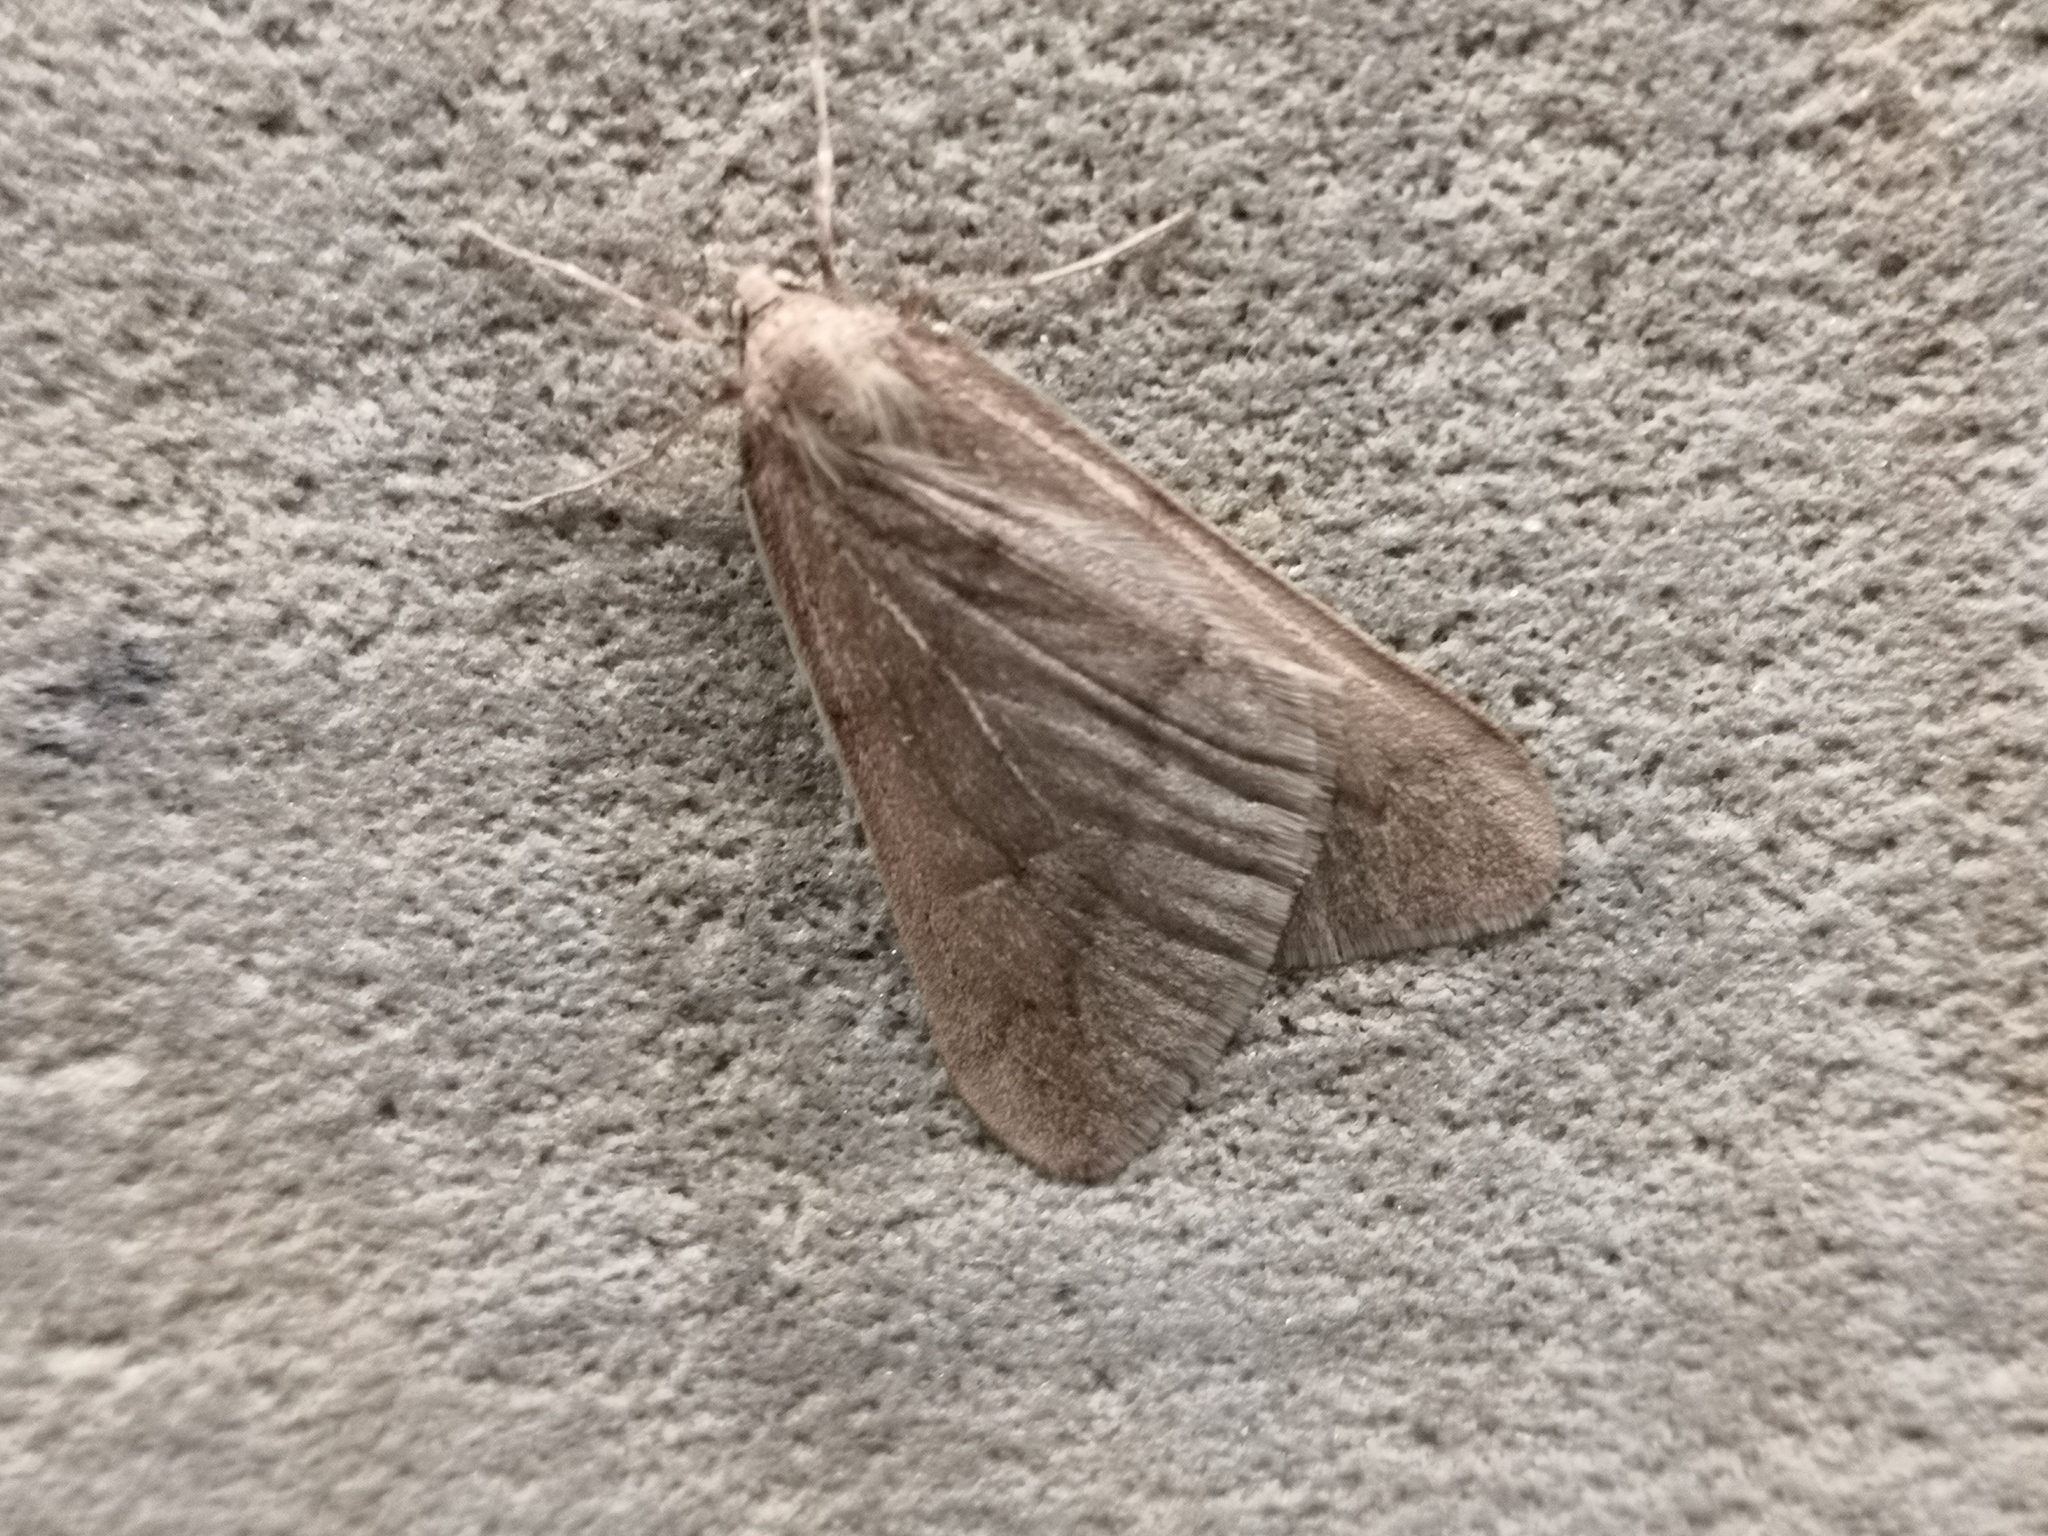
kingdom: Animalia
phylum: Arthropoda
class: Insecta
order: Lepidoptera
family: Geometridae
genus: Alsophila
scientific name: Alsophila aceraria
